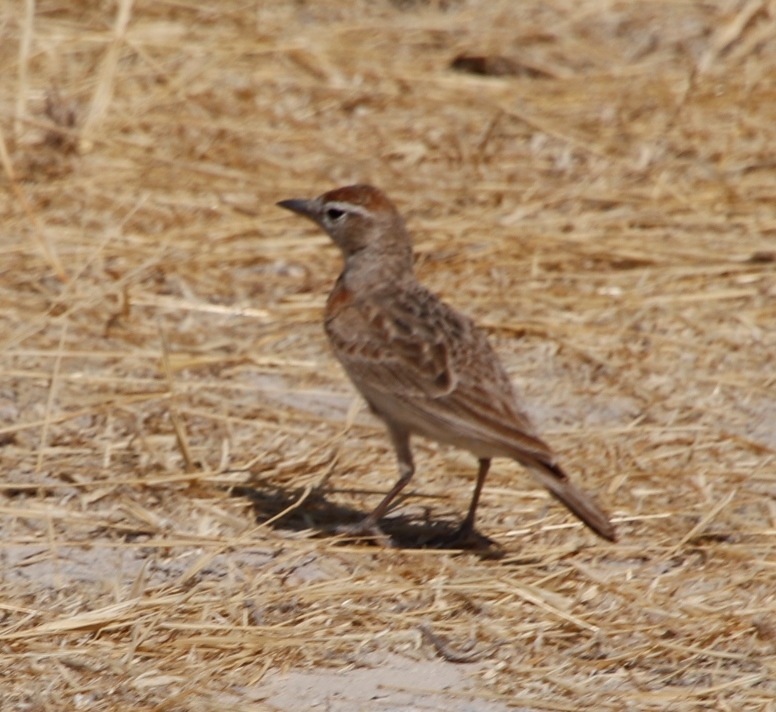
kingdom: Animalia
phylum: Chordata
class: Aves
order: Passeriformes
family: Alaudidae
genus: Calandrella
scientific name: Calandrella cinerea
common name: Red-capped lark
